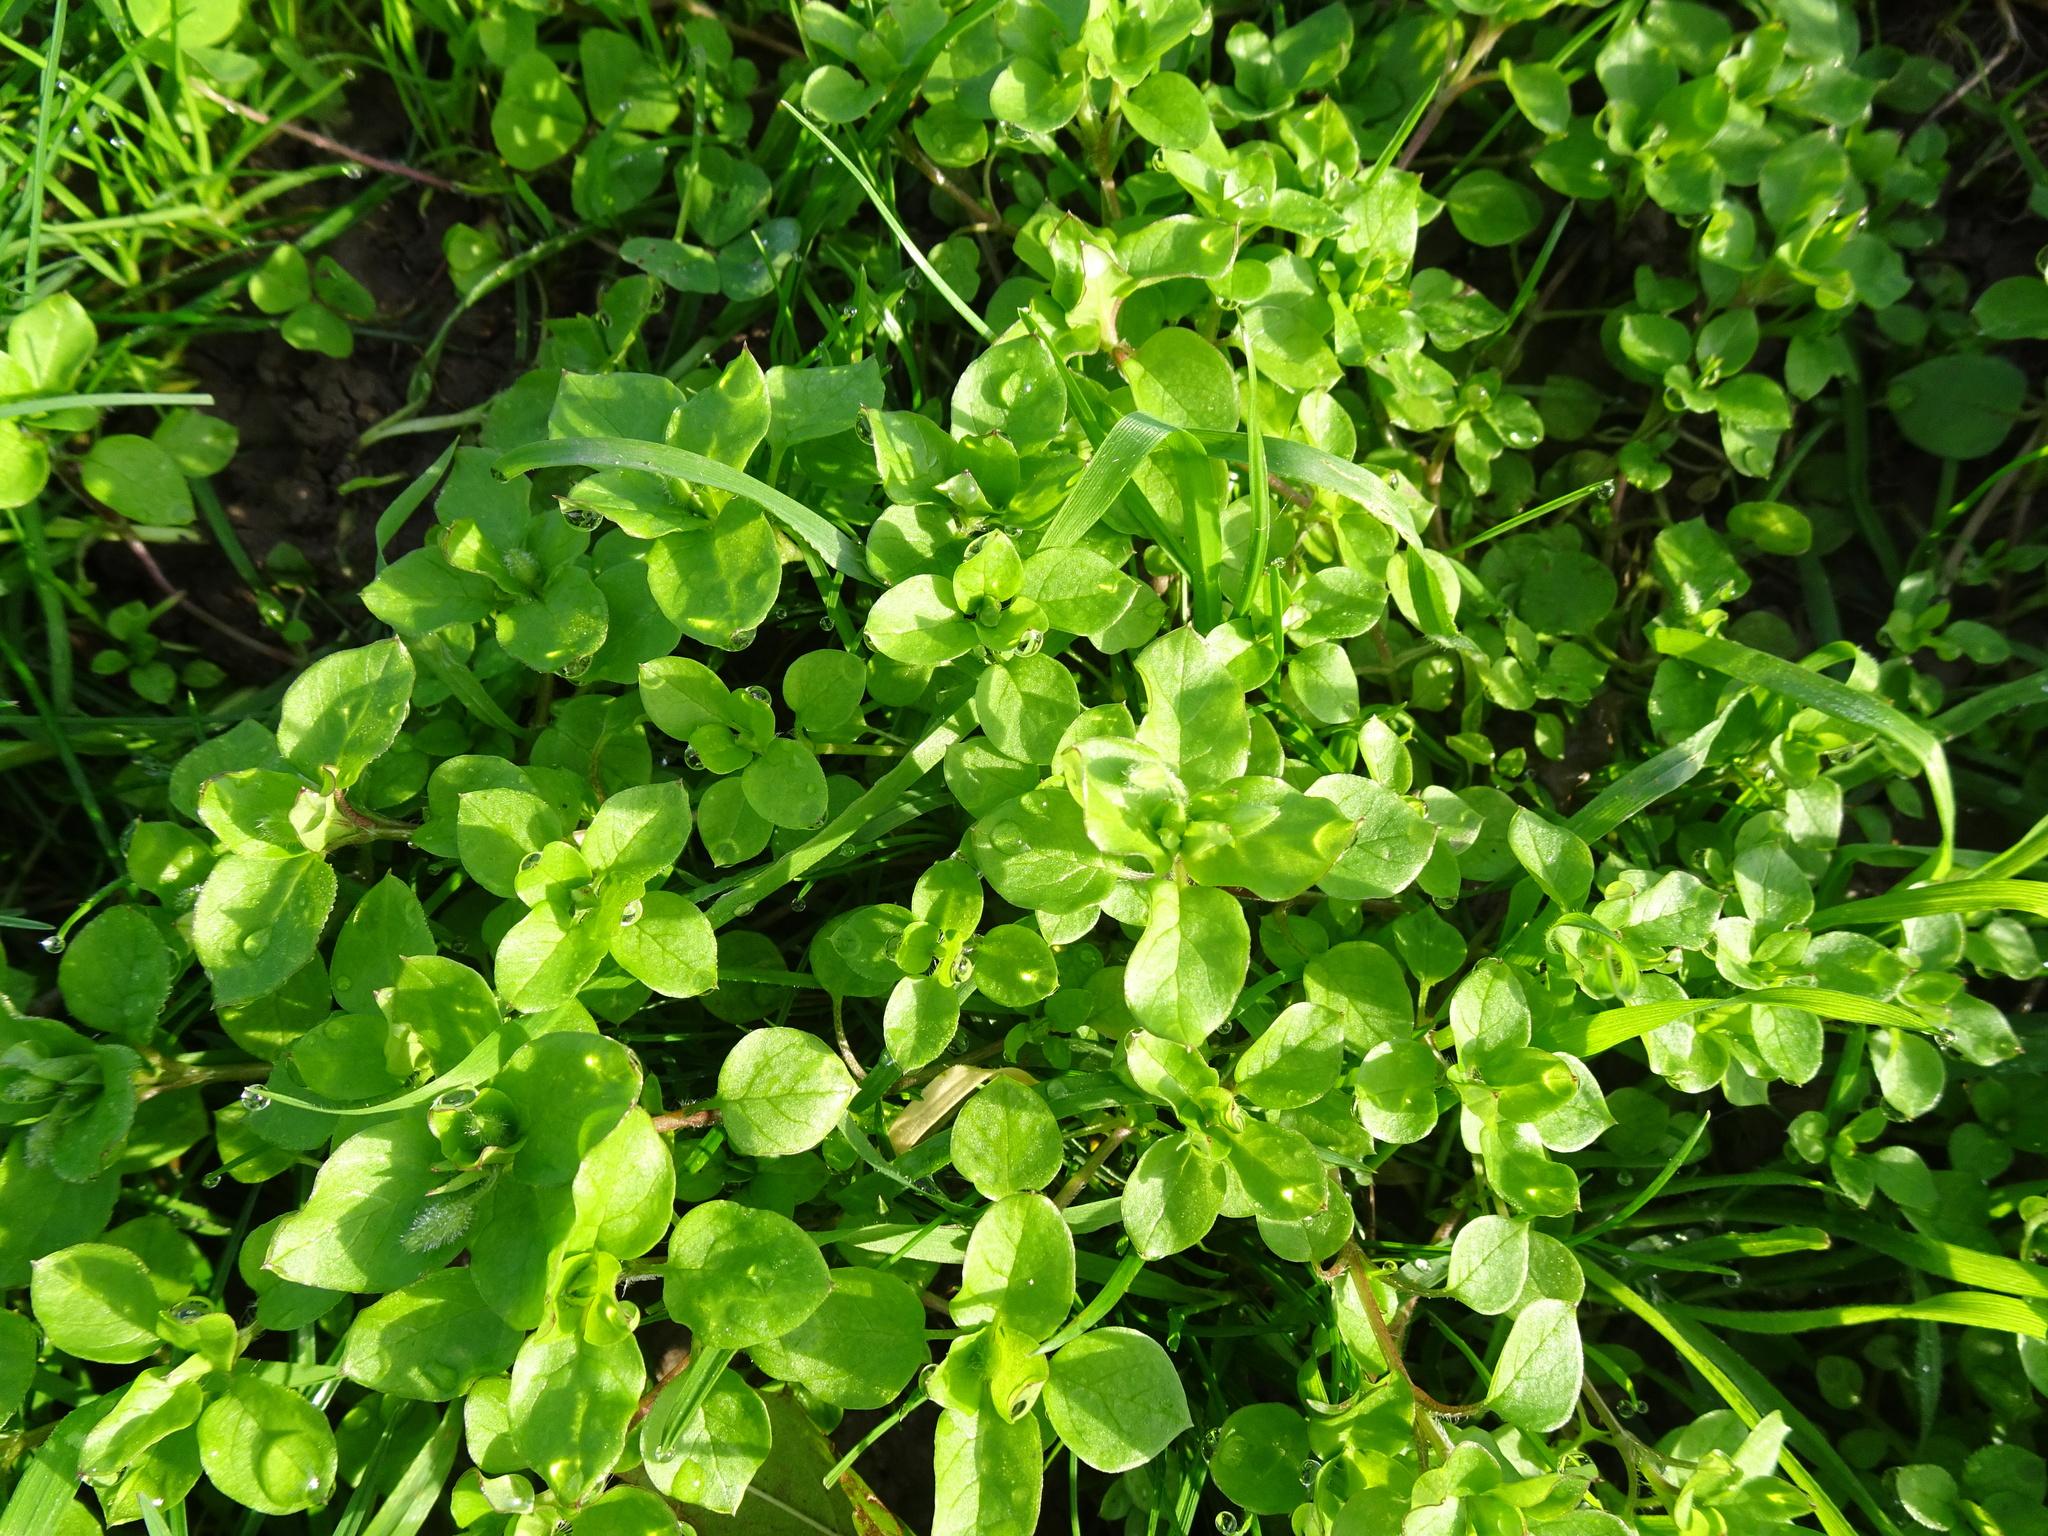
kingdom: Plantae
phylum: Tracheophyta
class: Magnoliopsida
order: Caryophyllales
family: Caryophyllaceae
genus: Stellaria
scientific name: Stellaria media
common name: Common chickweed
